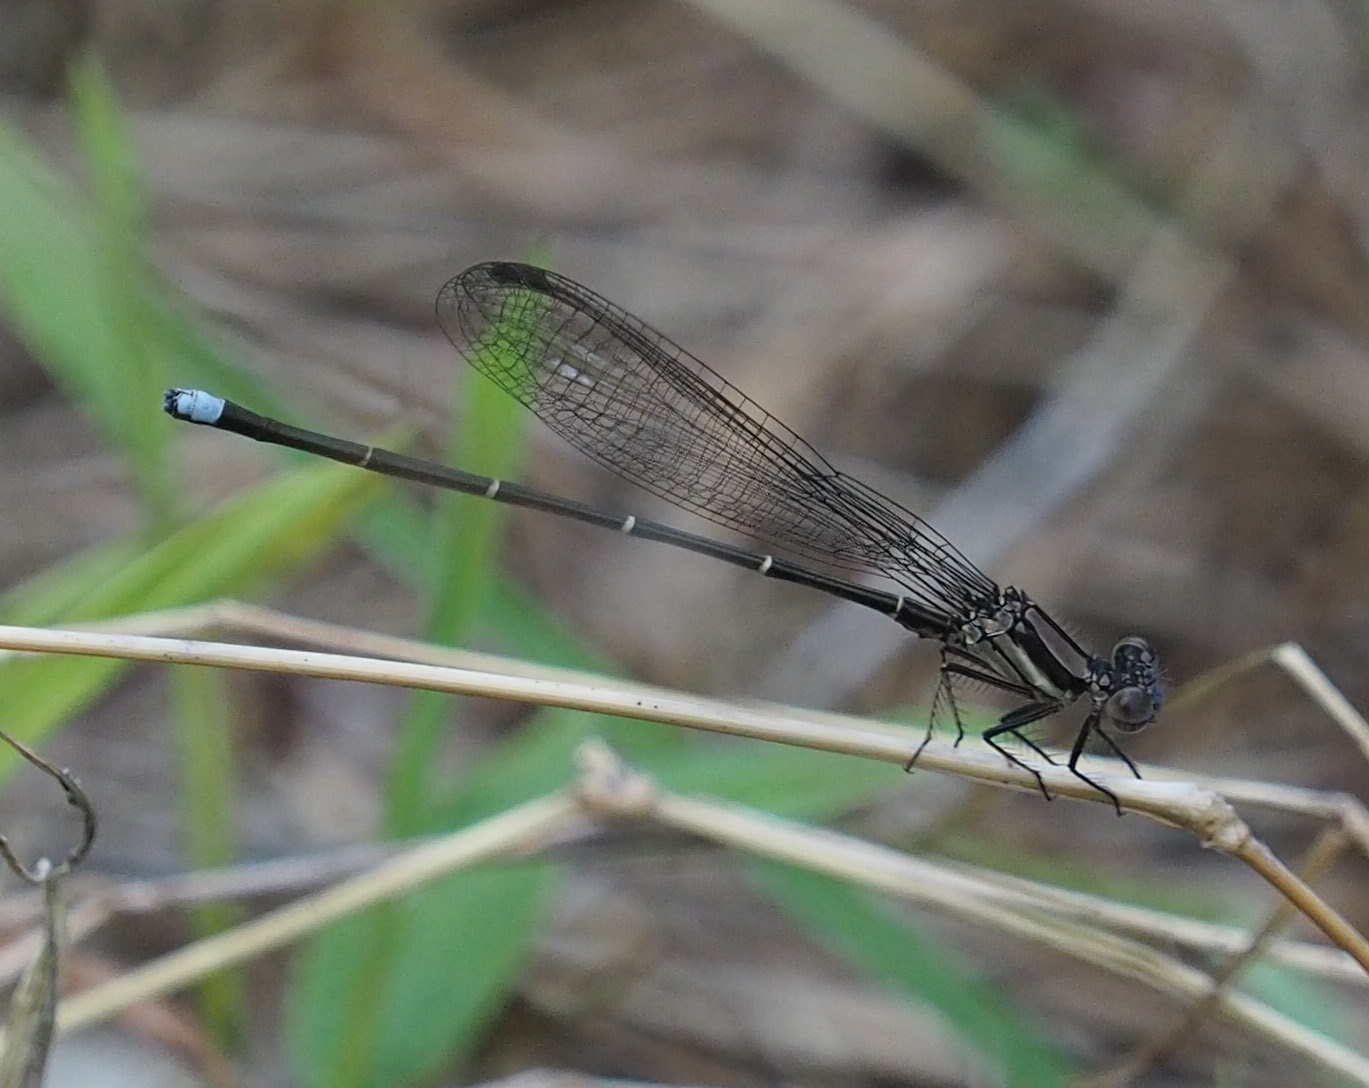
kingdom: Animalia
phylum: Arthropoda
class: Insecta
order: Odonata
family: Coenagrionidae
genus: Argia
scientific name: Argia tibialis
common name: Blue-tipped dancer
